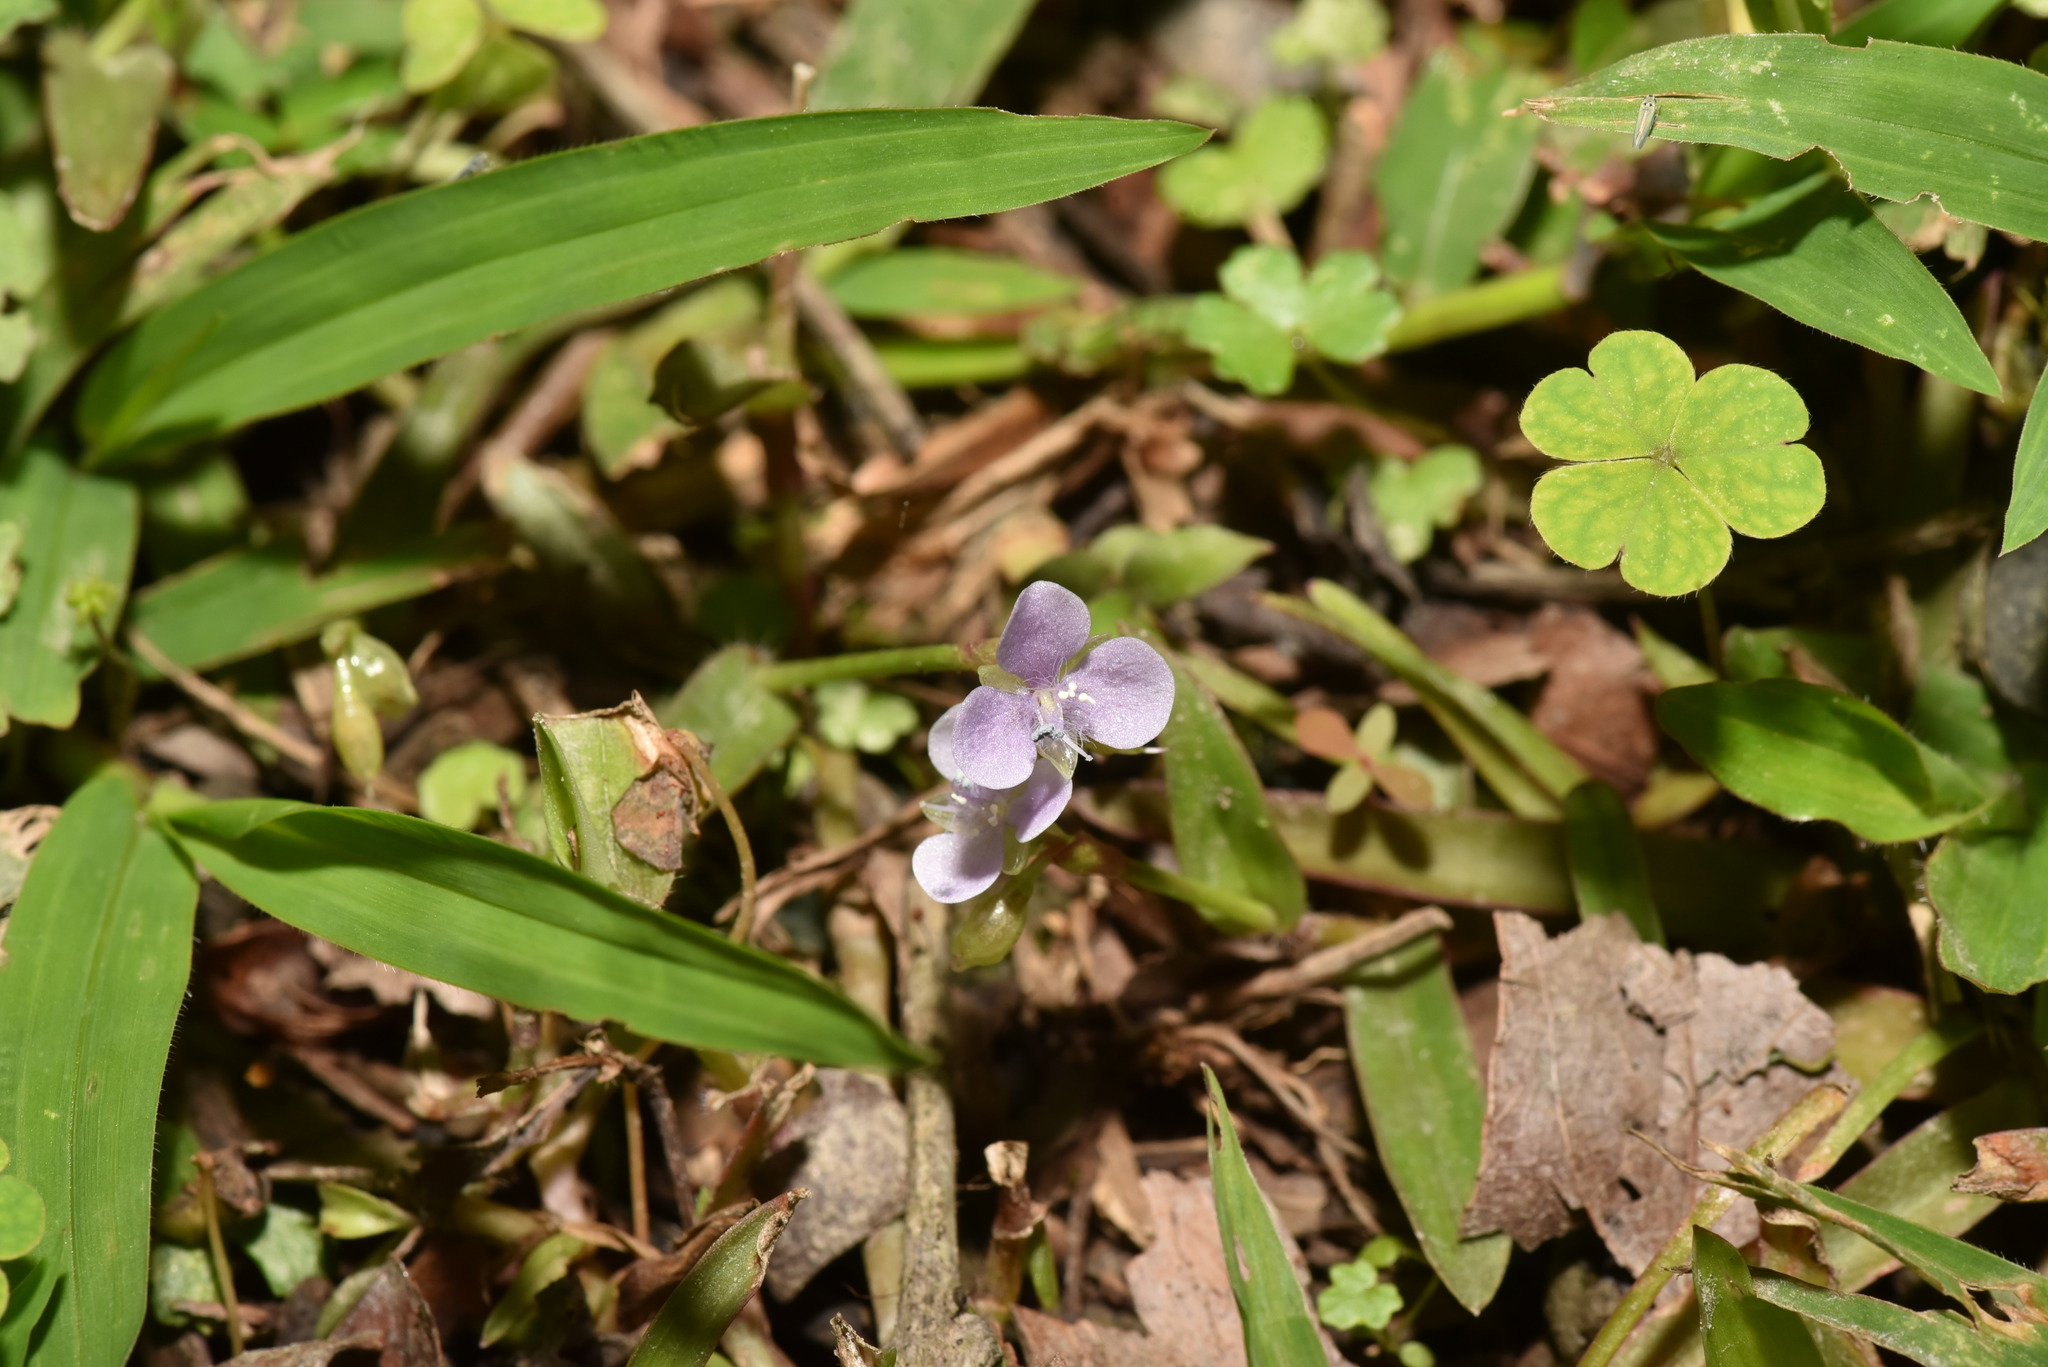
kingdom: Plantae
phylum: Tracheophyta
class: Liliopsida
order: Commelinales
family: Commelinaceae
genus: Murdannia
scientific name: Murdannia loriformis
